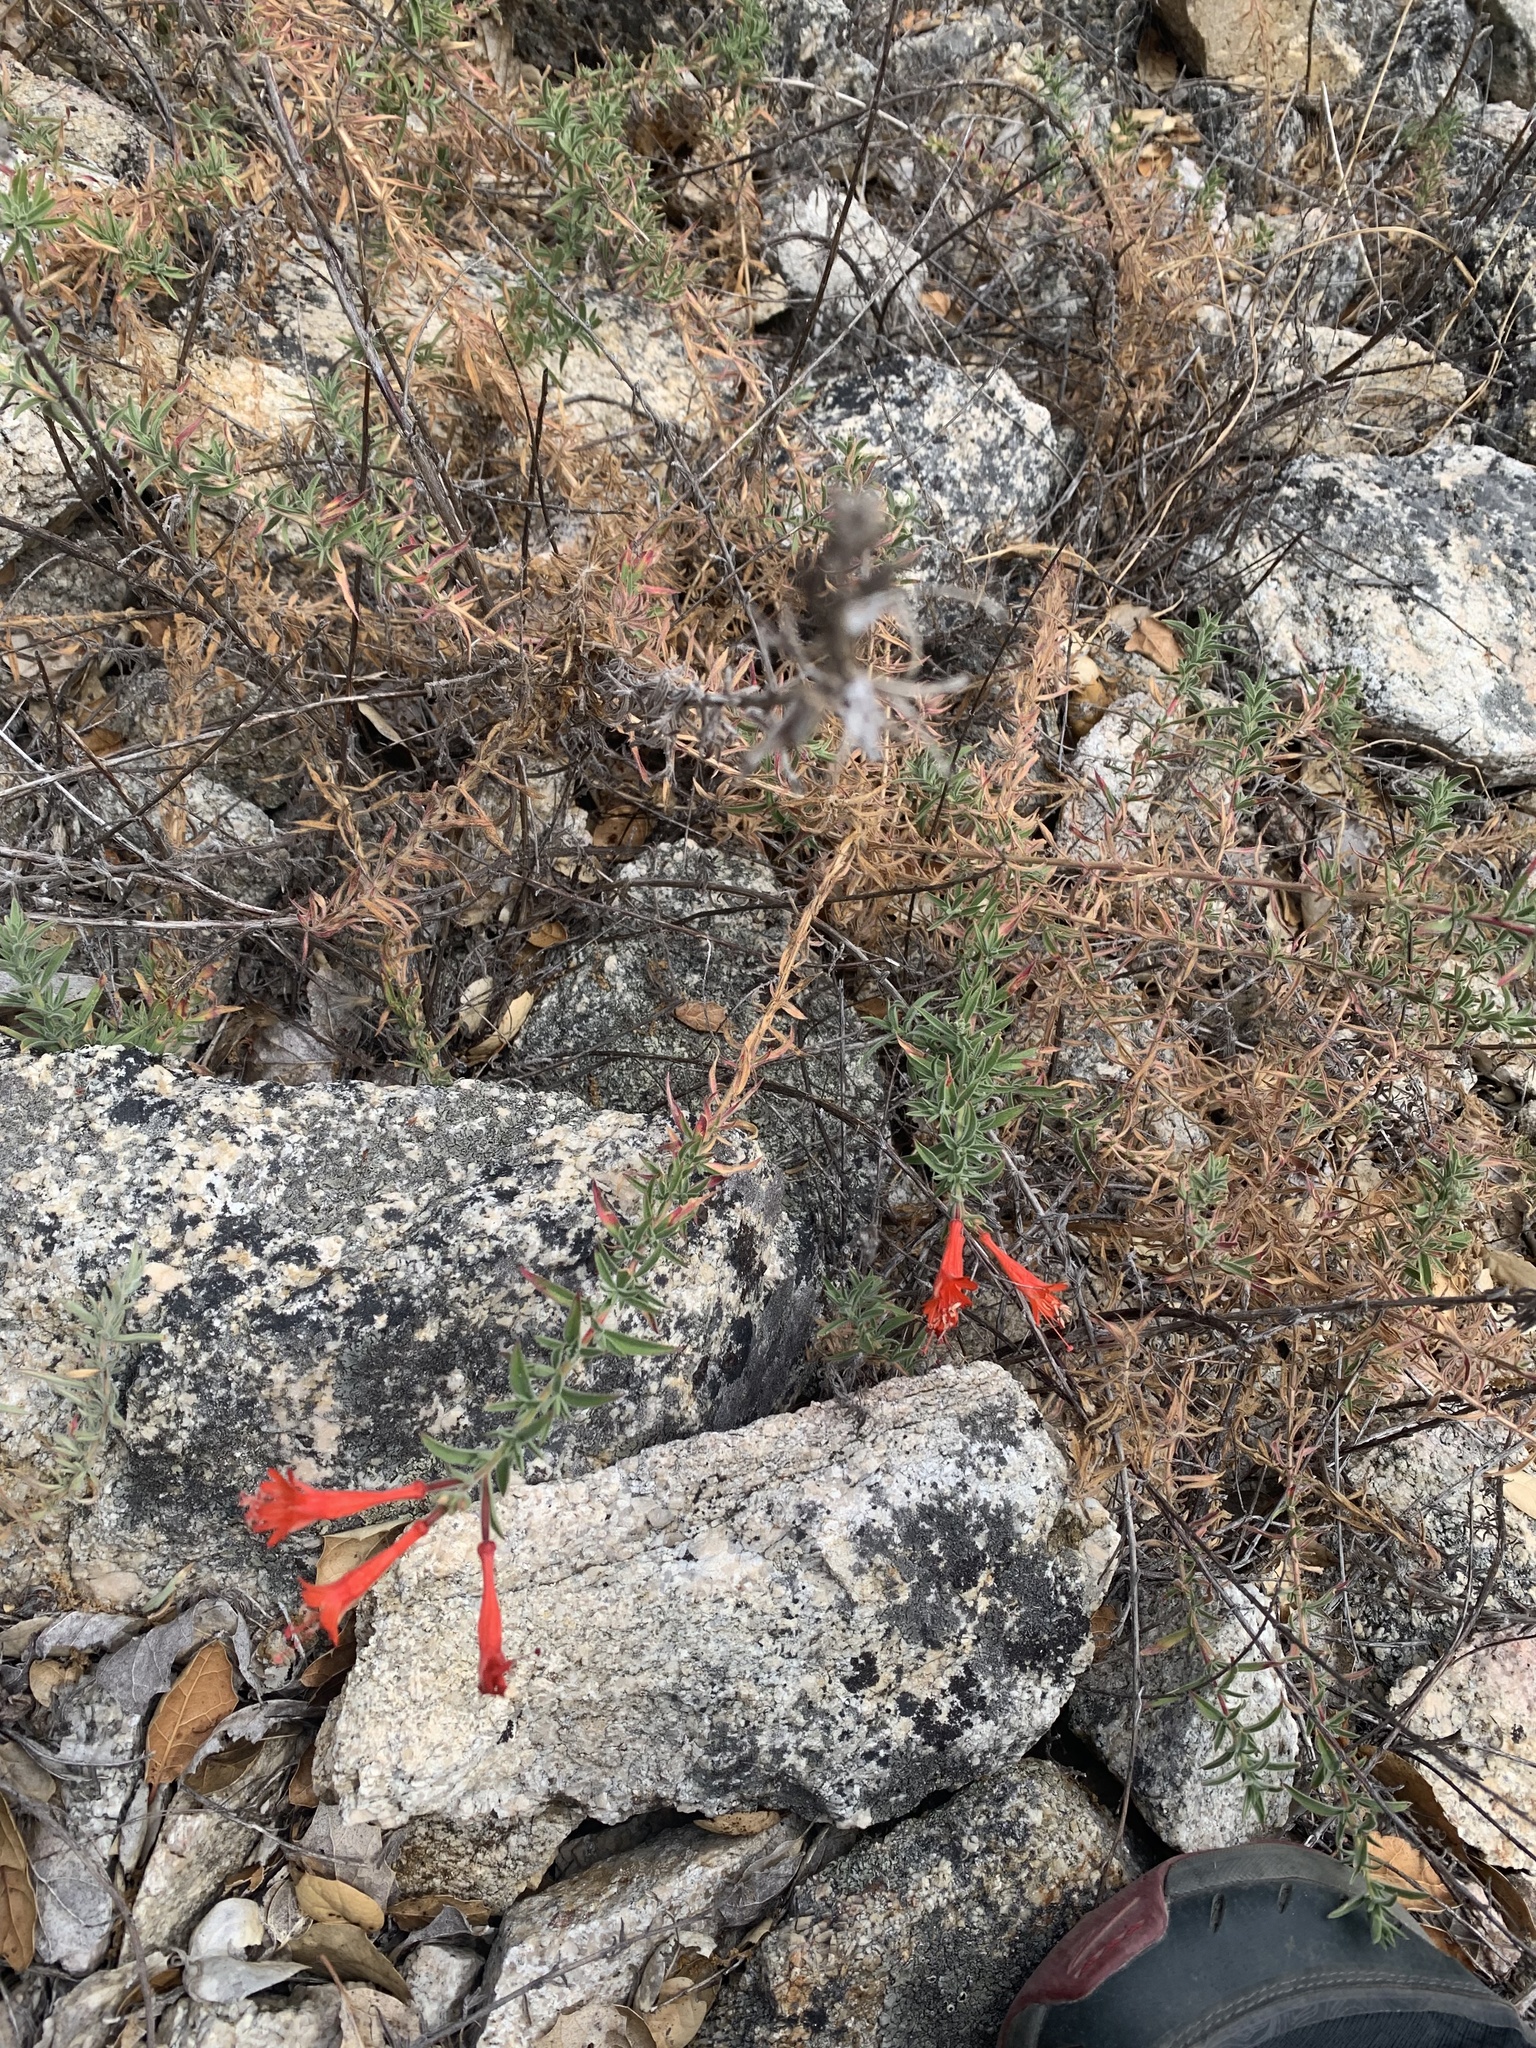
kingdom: Plantae
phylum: Tracheophyta
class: Magnoliopsida
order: Myrtales
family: Onagraceae
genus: Epilobium
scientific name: Epilobium canum
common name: California-fuchsia
